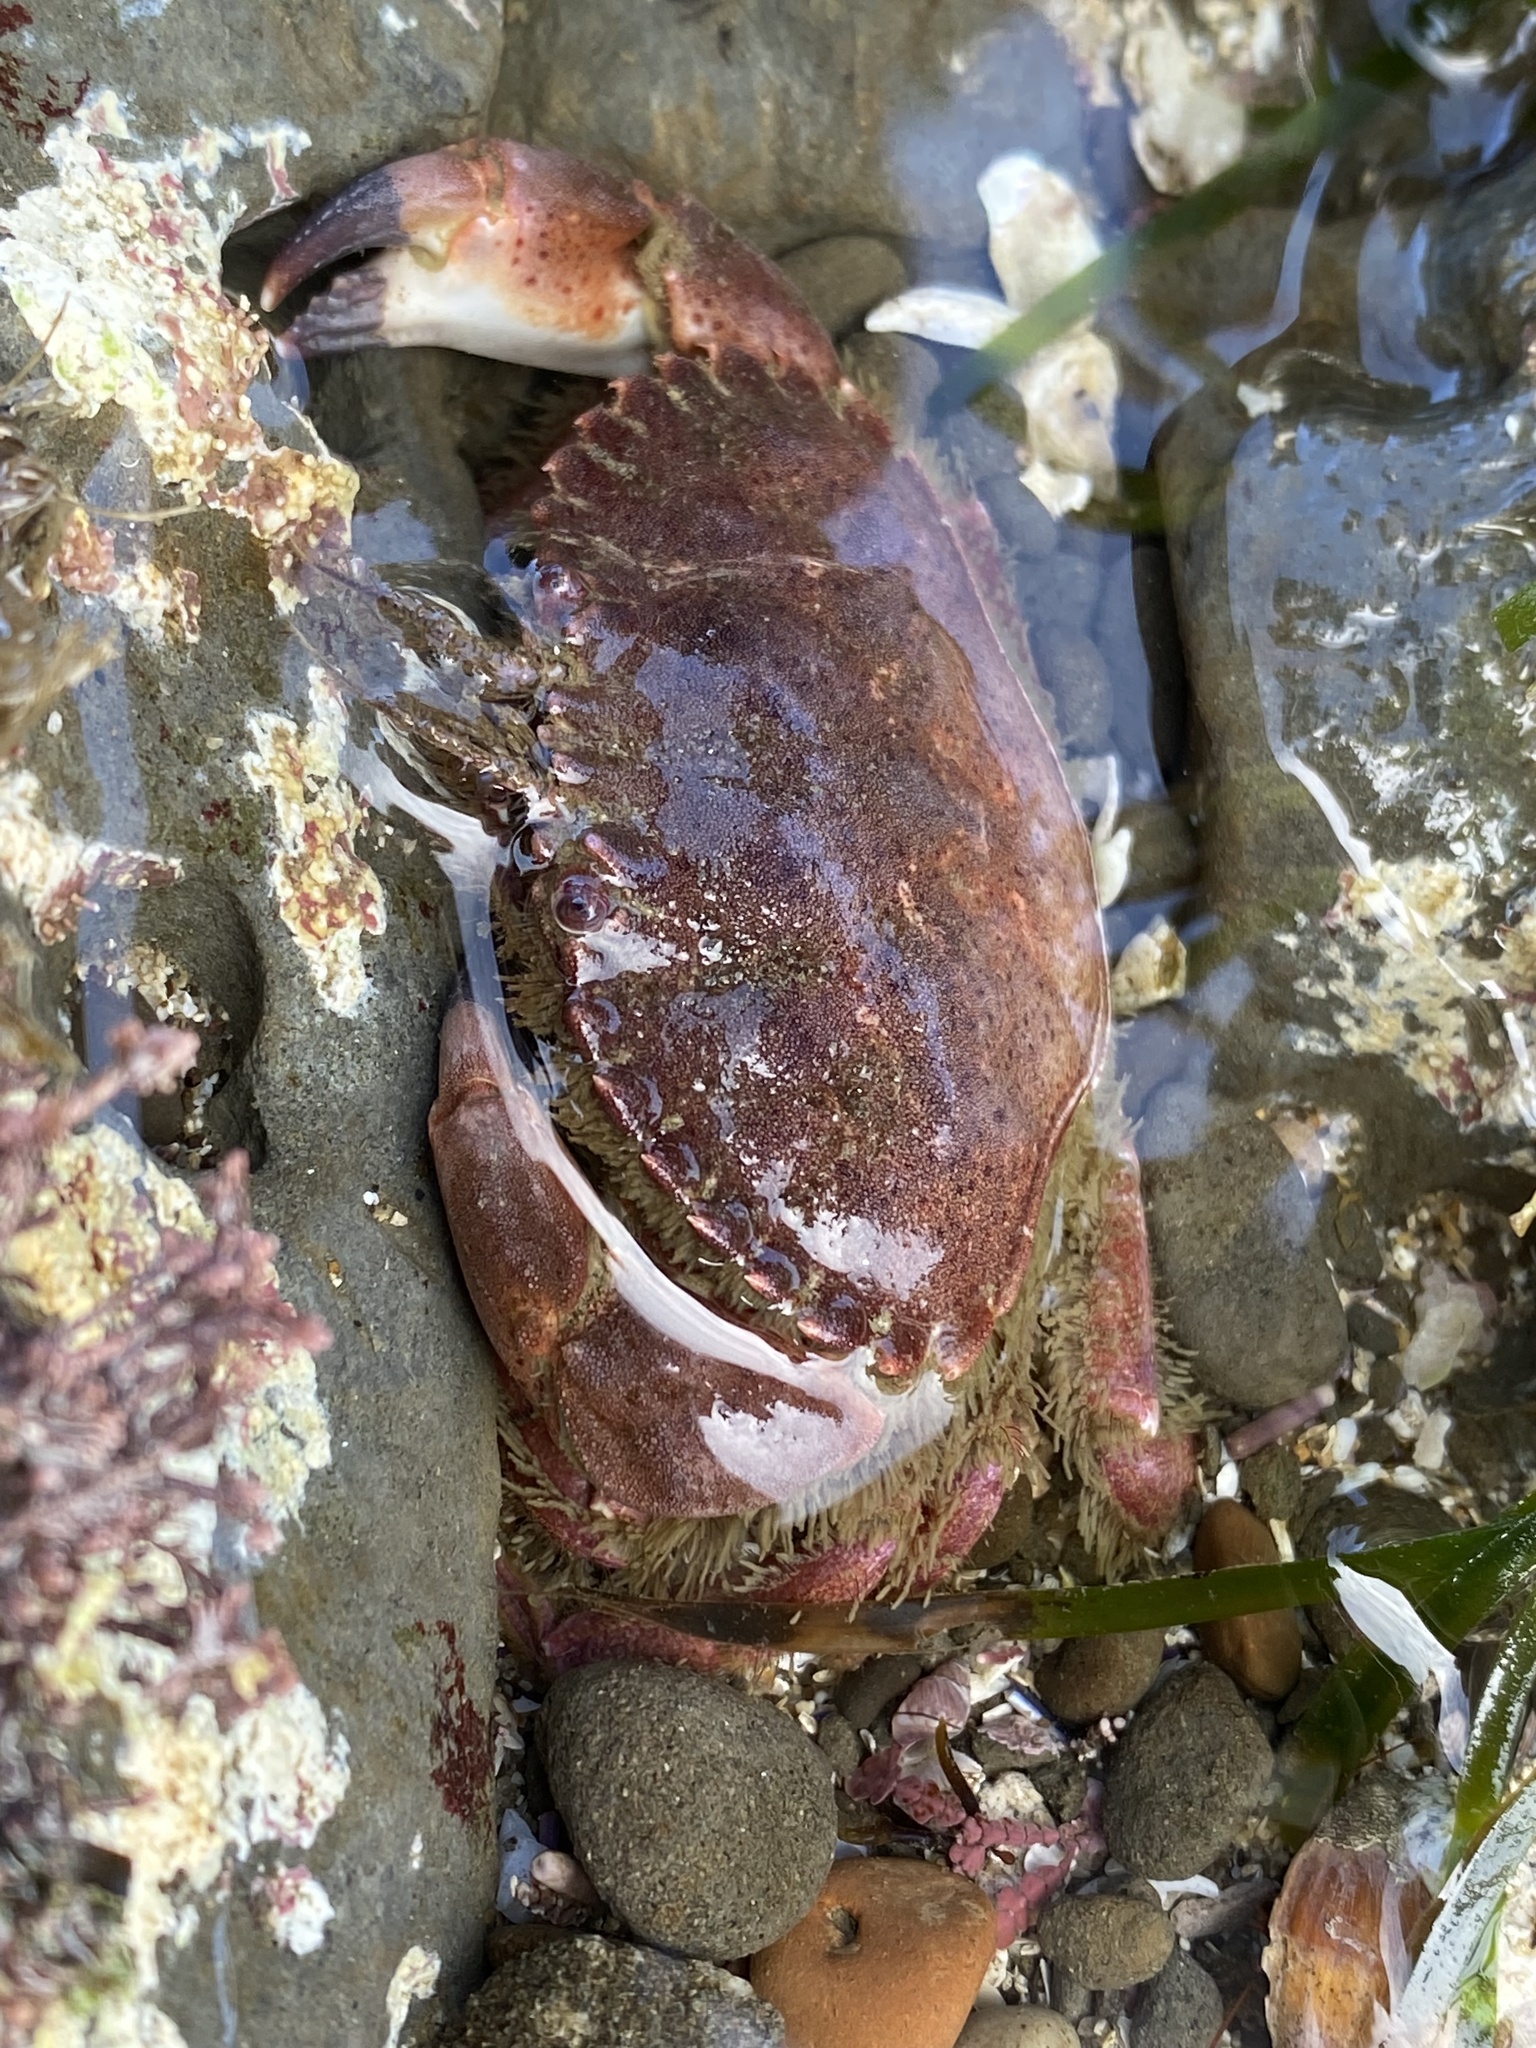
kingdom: Animalia
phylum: Arthropoda
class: Malacostraca
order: Decapoda
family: Cancridae
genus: Romaleon
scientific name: Romaleon antennarium
